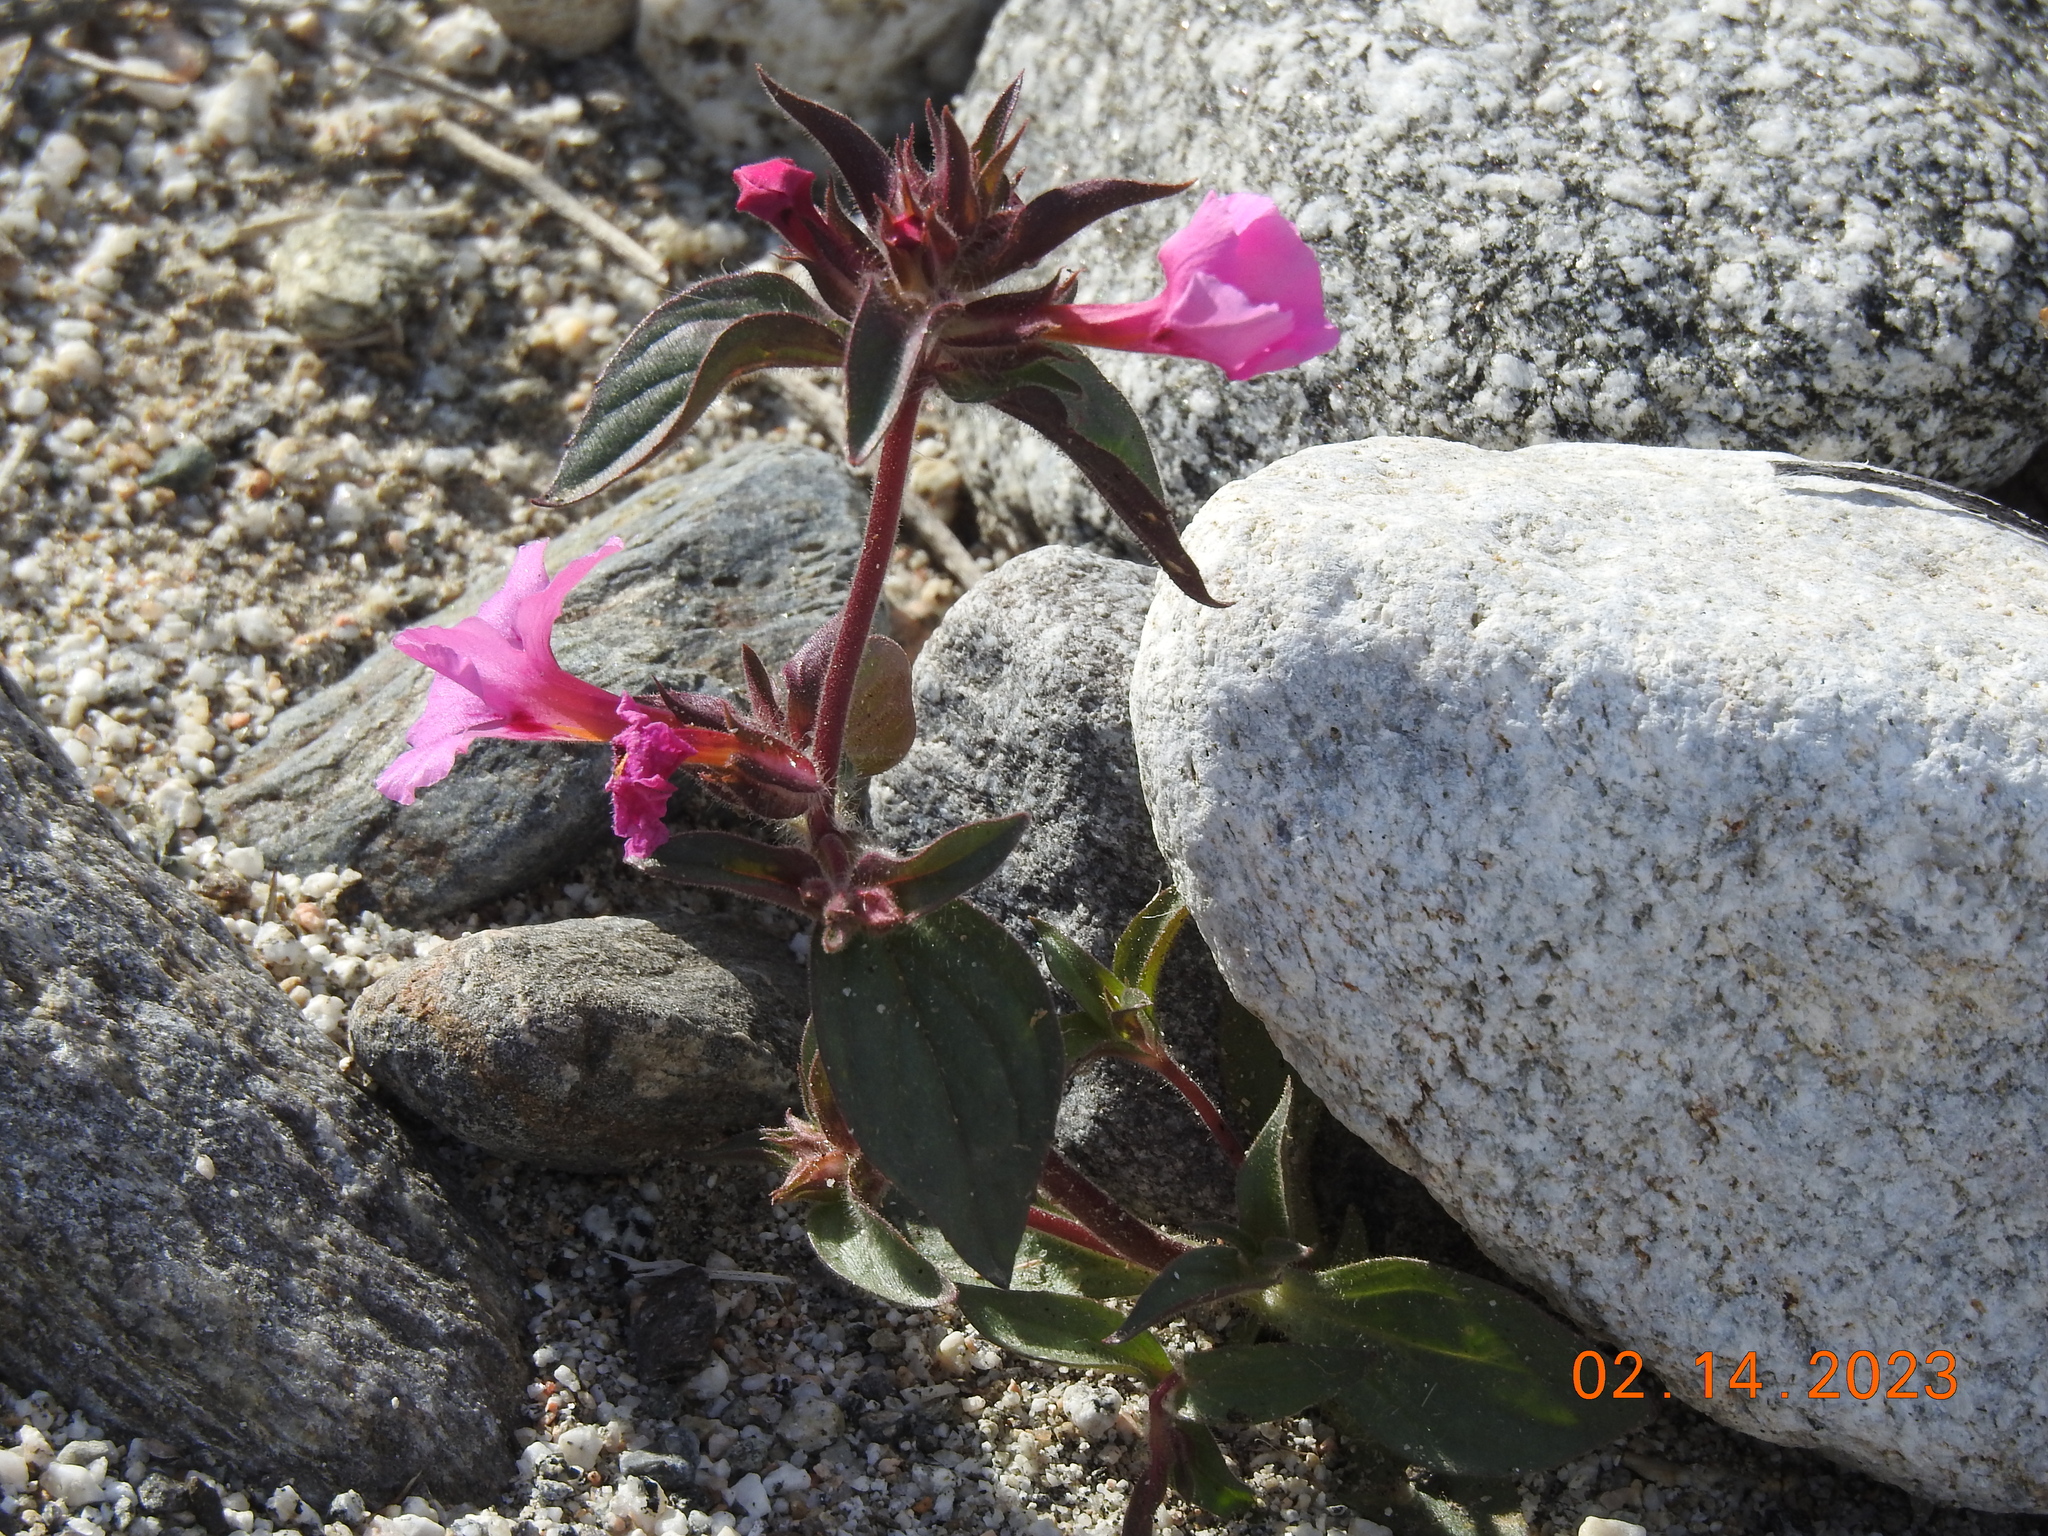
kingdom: Plantae
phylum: Tracheophyta
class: Magnoliopsida
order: Lamiales
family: Phrymaceae
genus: Diplacus
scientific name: Diplacus bigelovii
